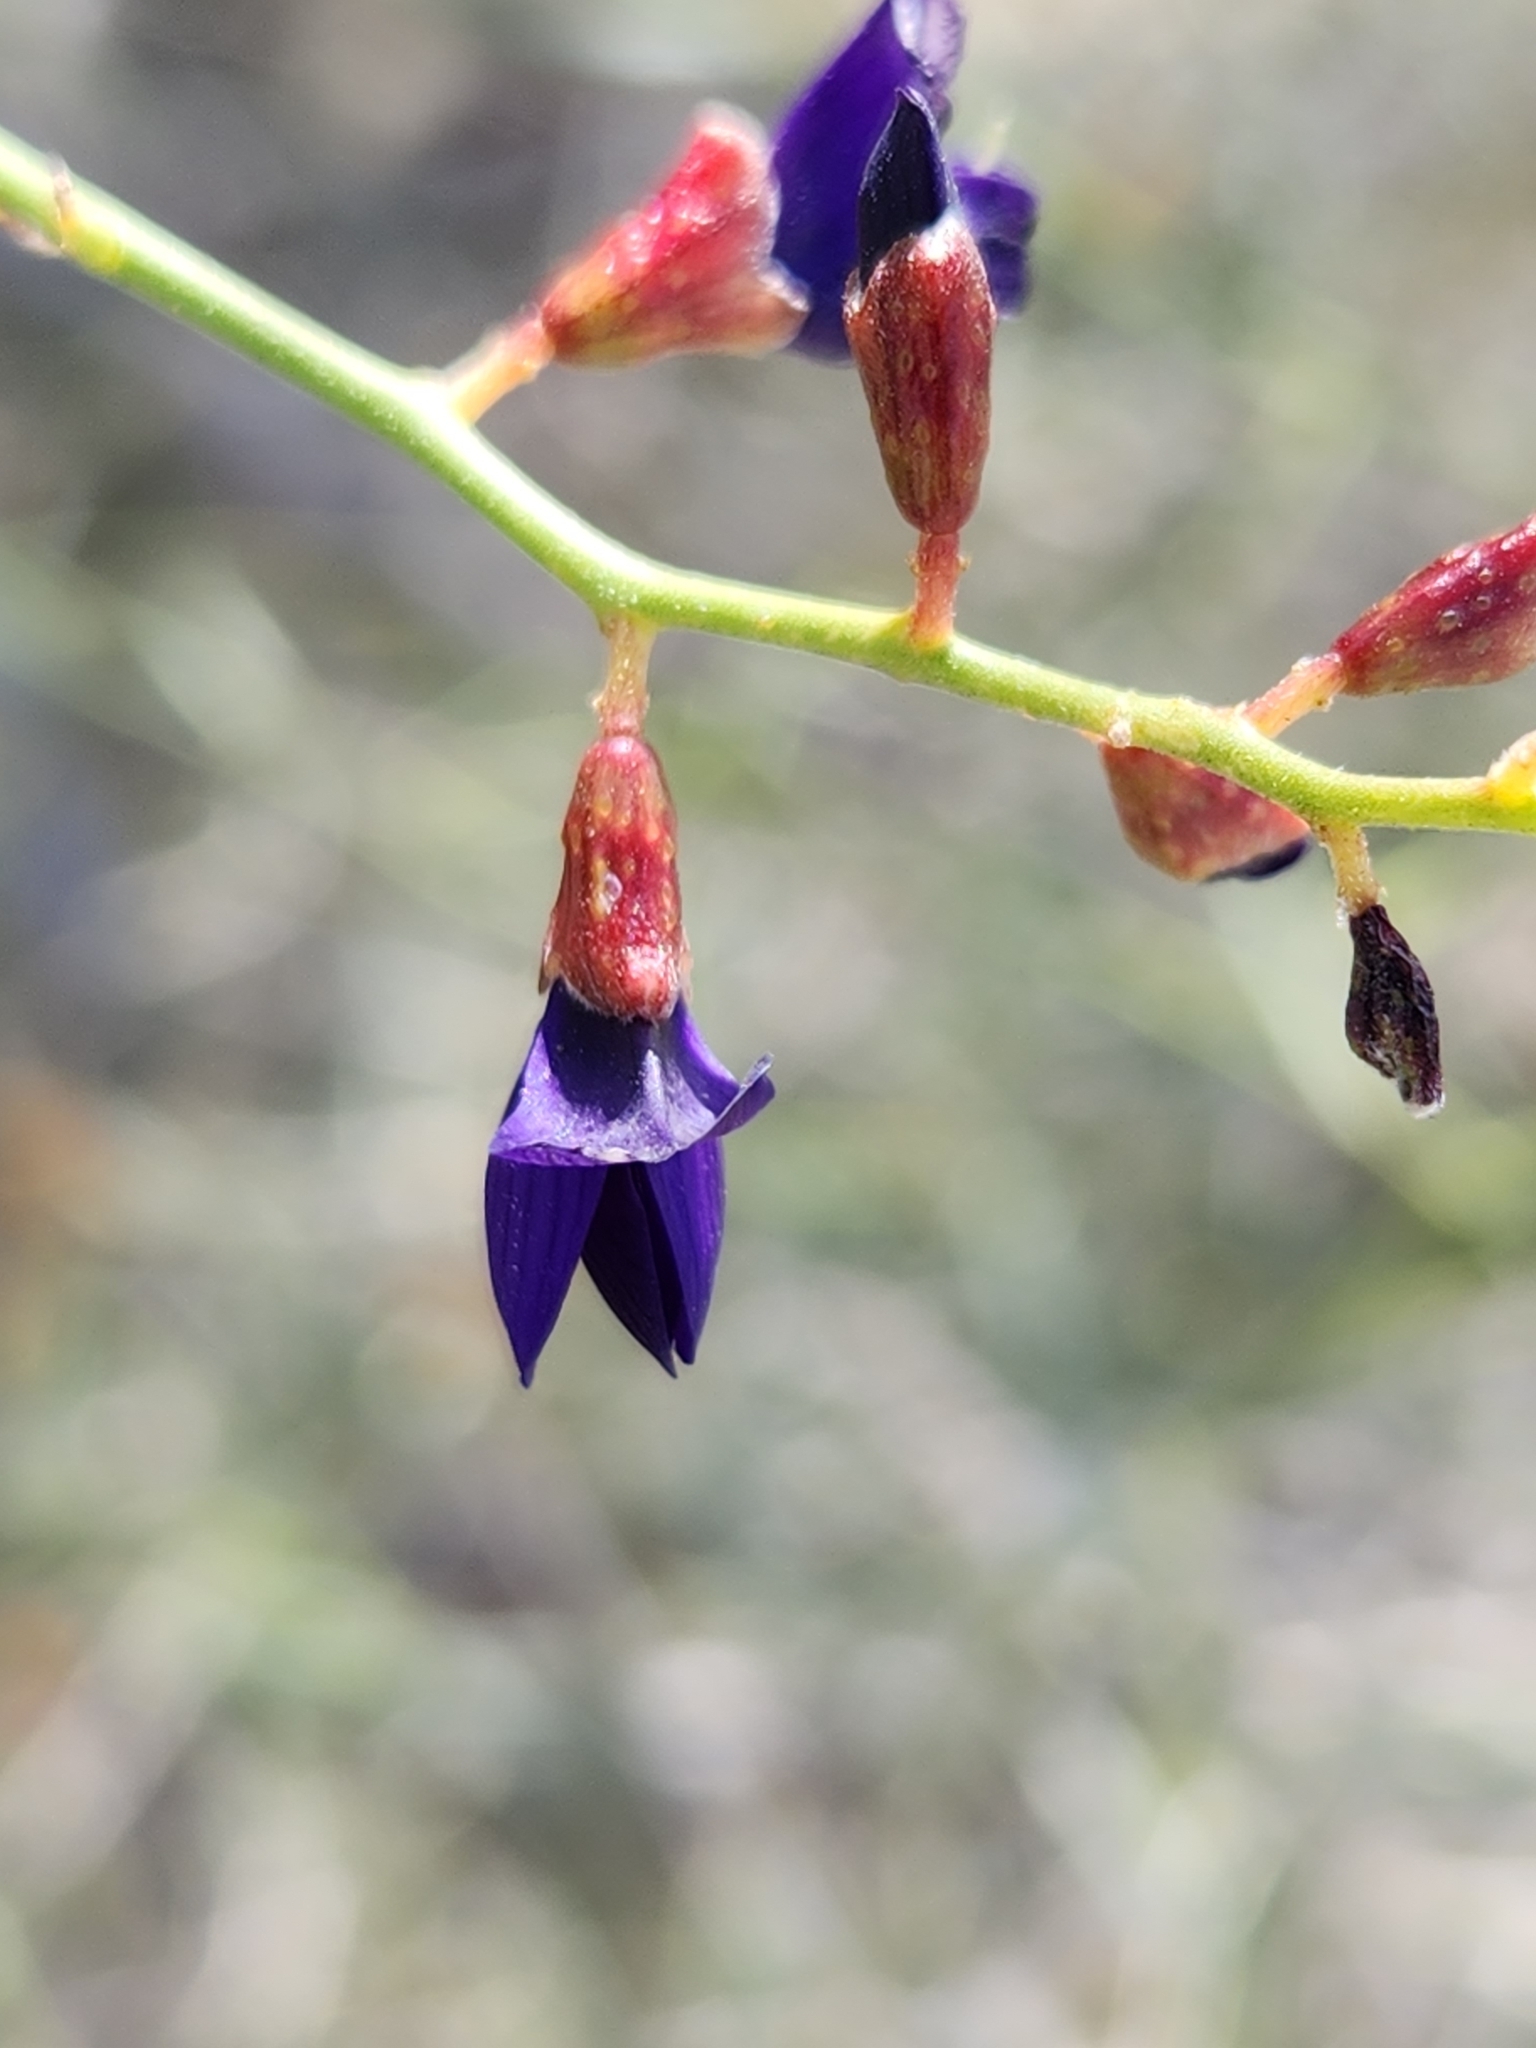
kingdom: Plantae
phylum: Tracheophyta
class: Magnoliopsida
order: Fabales
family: Fabaceae
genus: Psorothamnus
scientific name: Psorothamnus schottii
